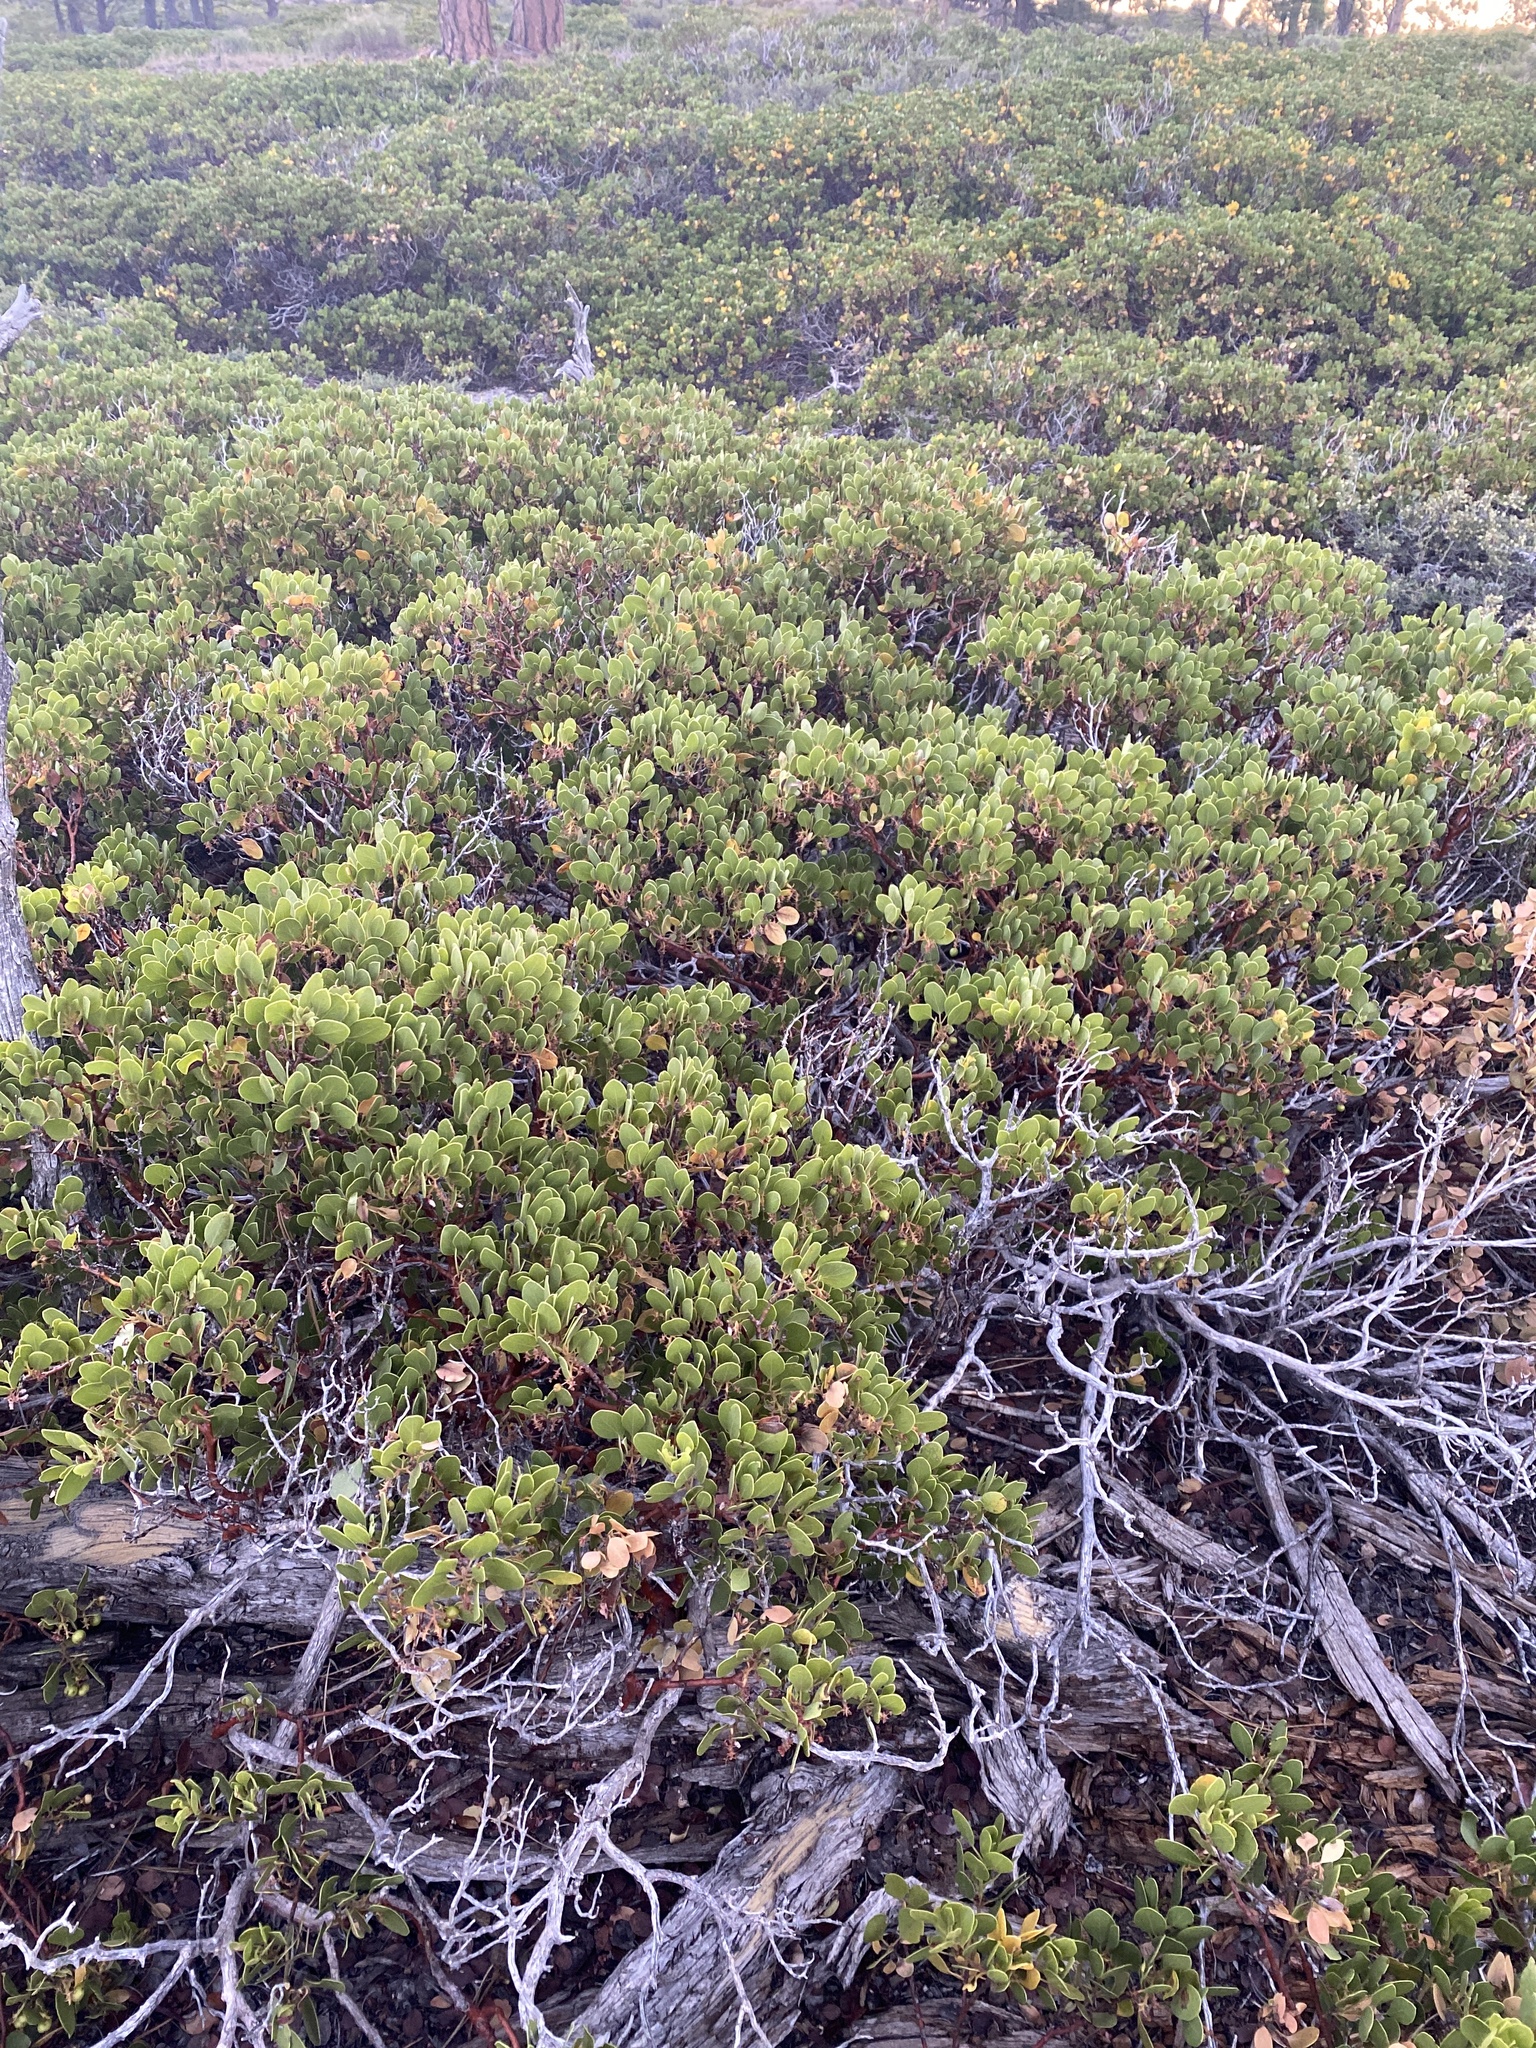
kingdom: Plantae
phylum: Tracheophyta
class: Magnoliopsida
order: Ericales
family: Ericaceae
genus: Arctostaphylos
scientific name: Arctostaphylos patula
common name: Green-leaf manzanita
